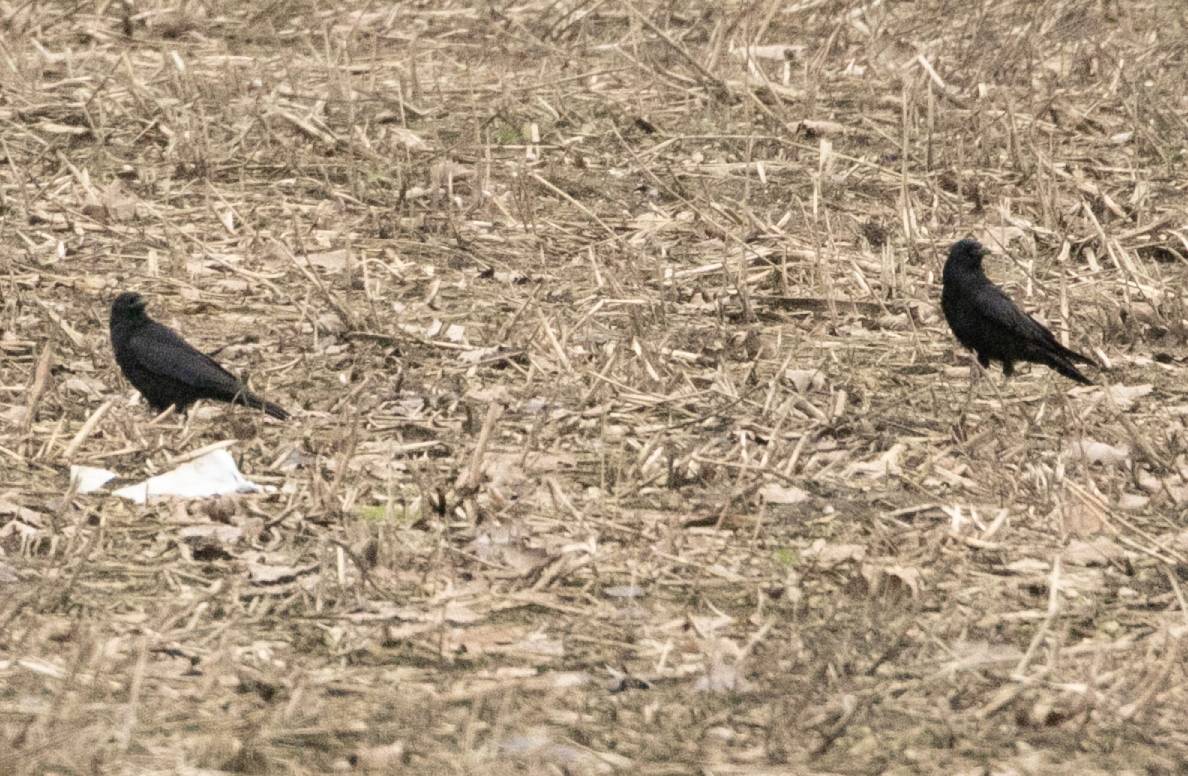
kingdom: Animalia
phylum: Chordata
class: Aves
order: Passeriformes
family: Corvidae
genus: Corvus
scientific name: Corvus corone
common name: Carrion crow
